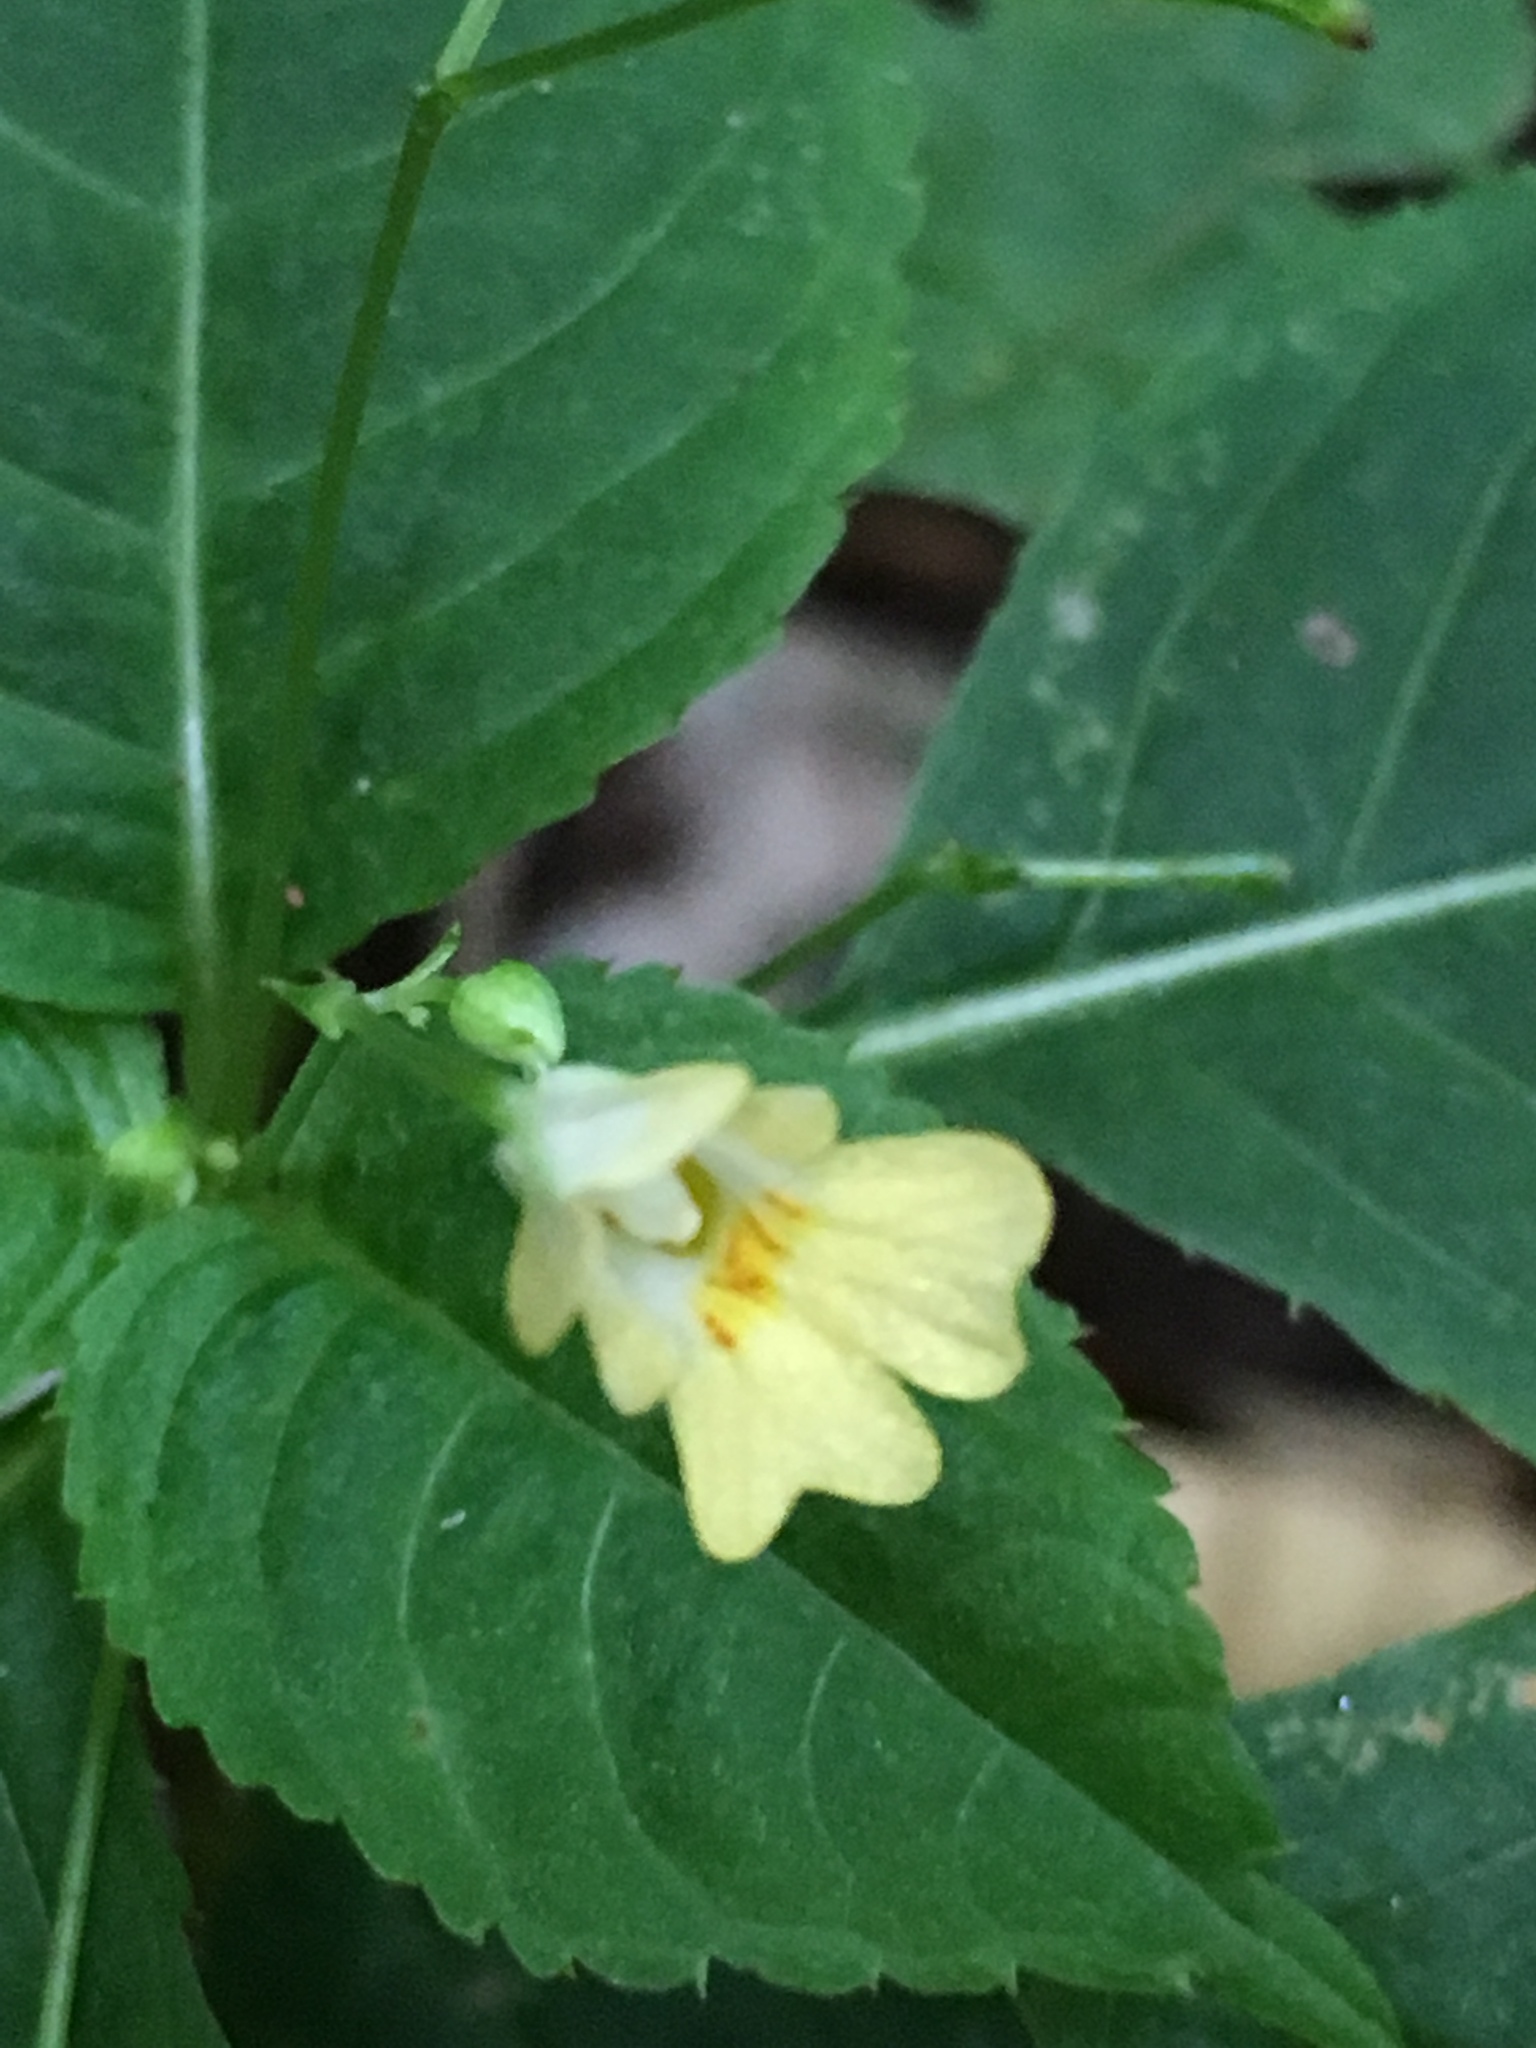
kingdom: Plantae
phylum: Tracheophyta
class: Magnoliopsida
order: Ericales
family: Balsaminaceae
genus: Impatiens
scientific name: Impatiens parviflora
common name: Small balsam
